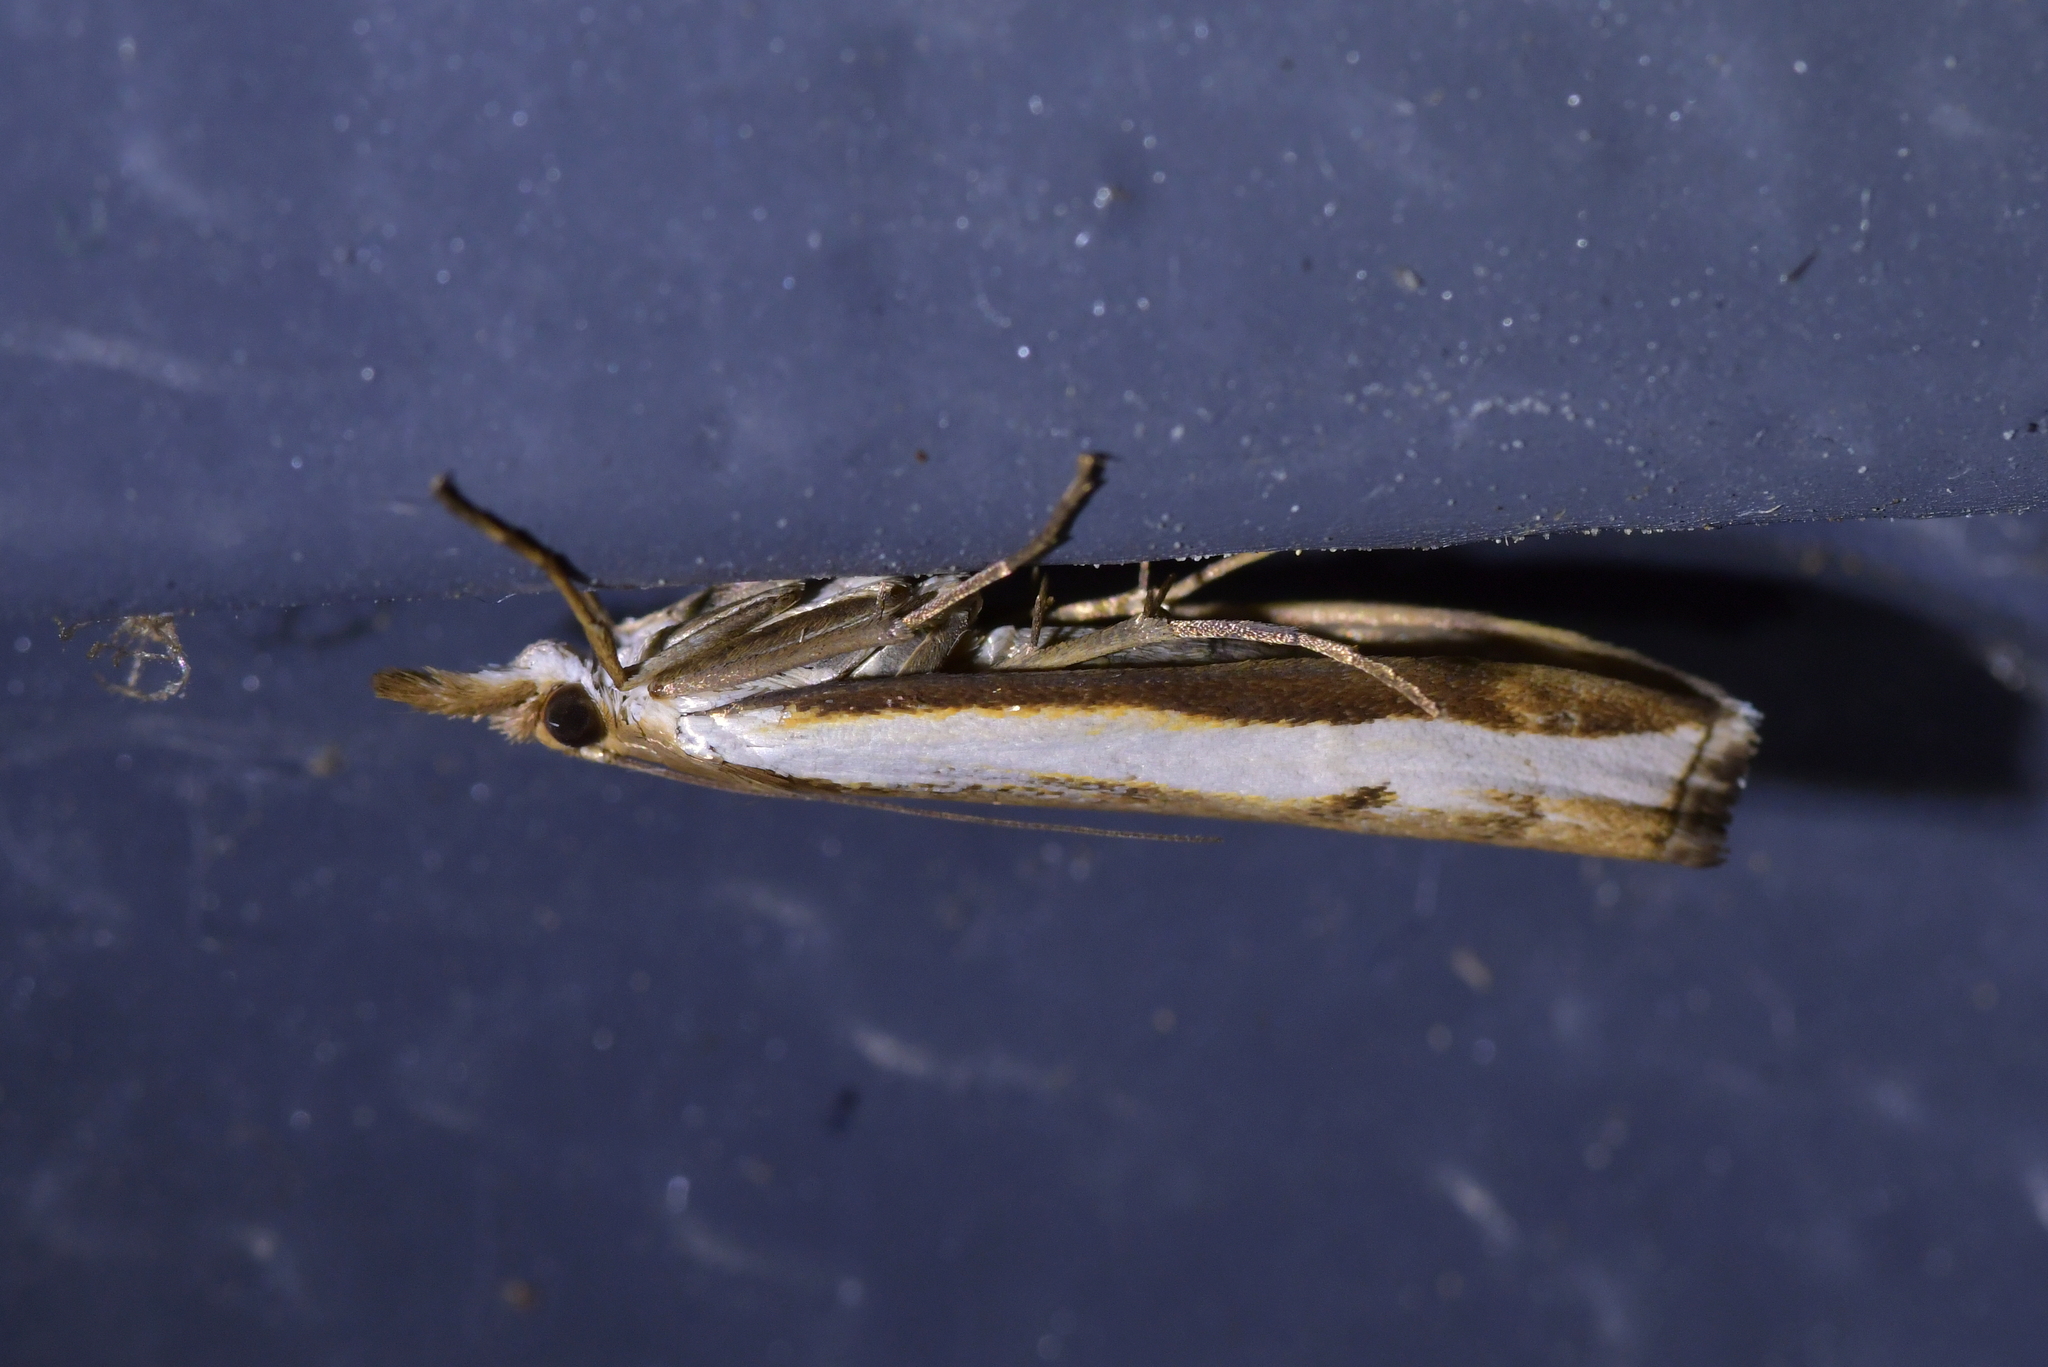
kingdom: Animalia
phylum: Arthropoda
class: Insecta
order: Lepidoptera
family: Crambidae
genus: Orocrambus
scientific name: Orocrambus flexuosellus
